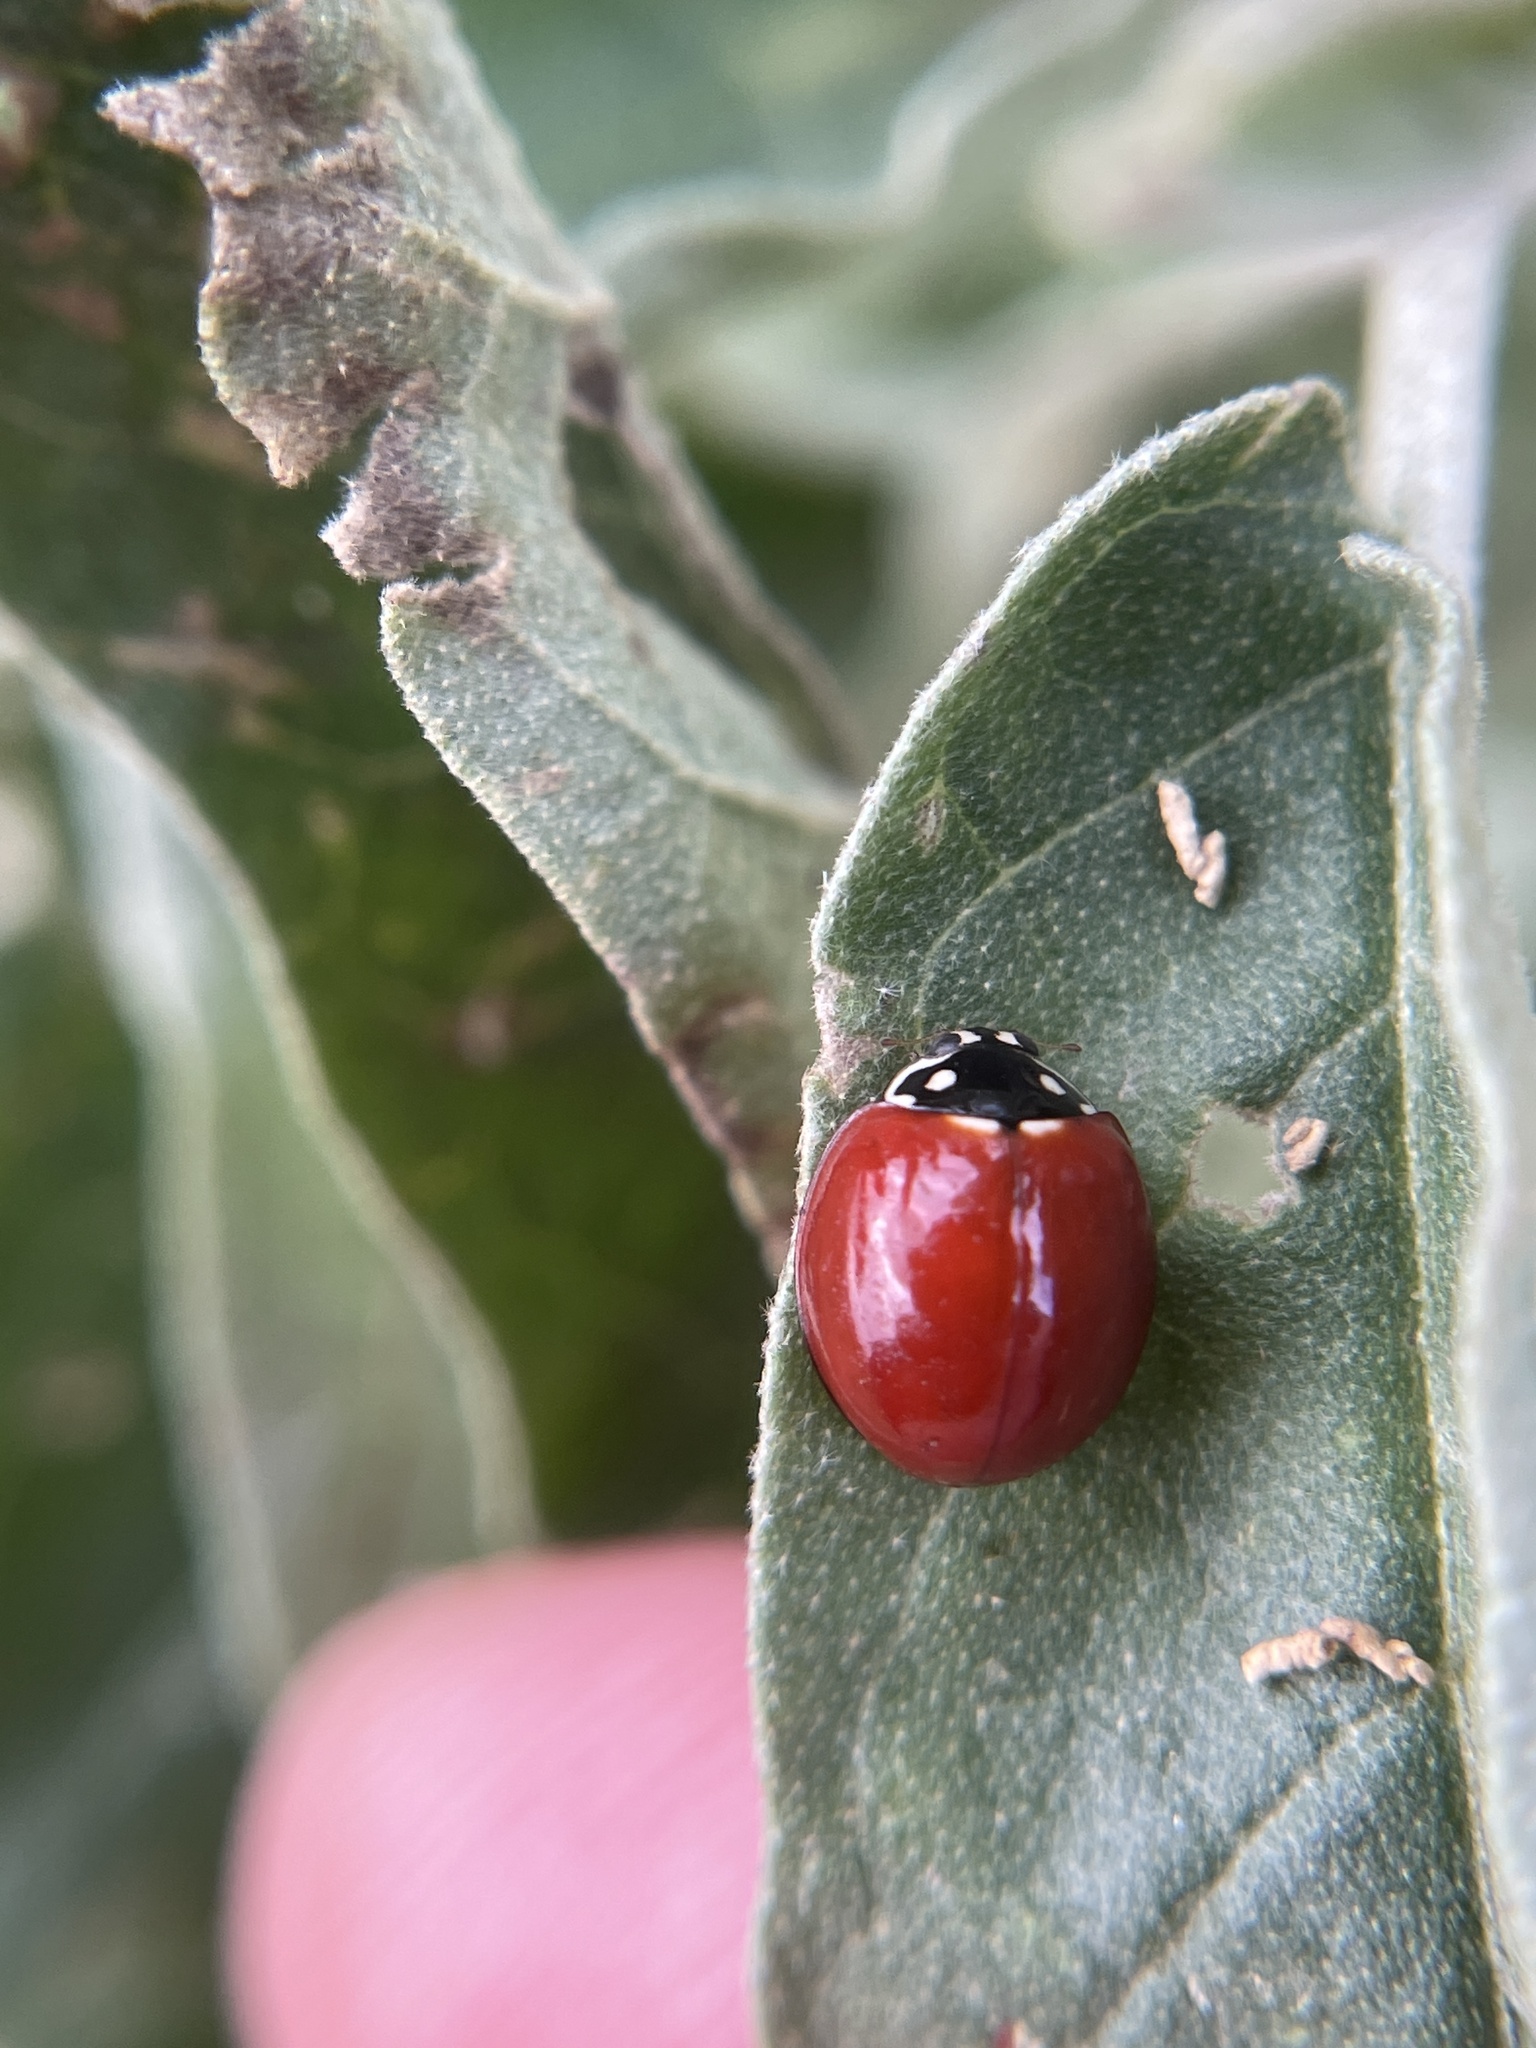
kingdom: Animalia
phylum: Arthropoda
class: Insecta
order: Coleoptera
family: Coccinellidae
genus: Cycloneda
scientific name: Cycloneda sanguinea
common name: Ladybird beetle
